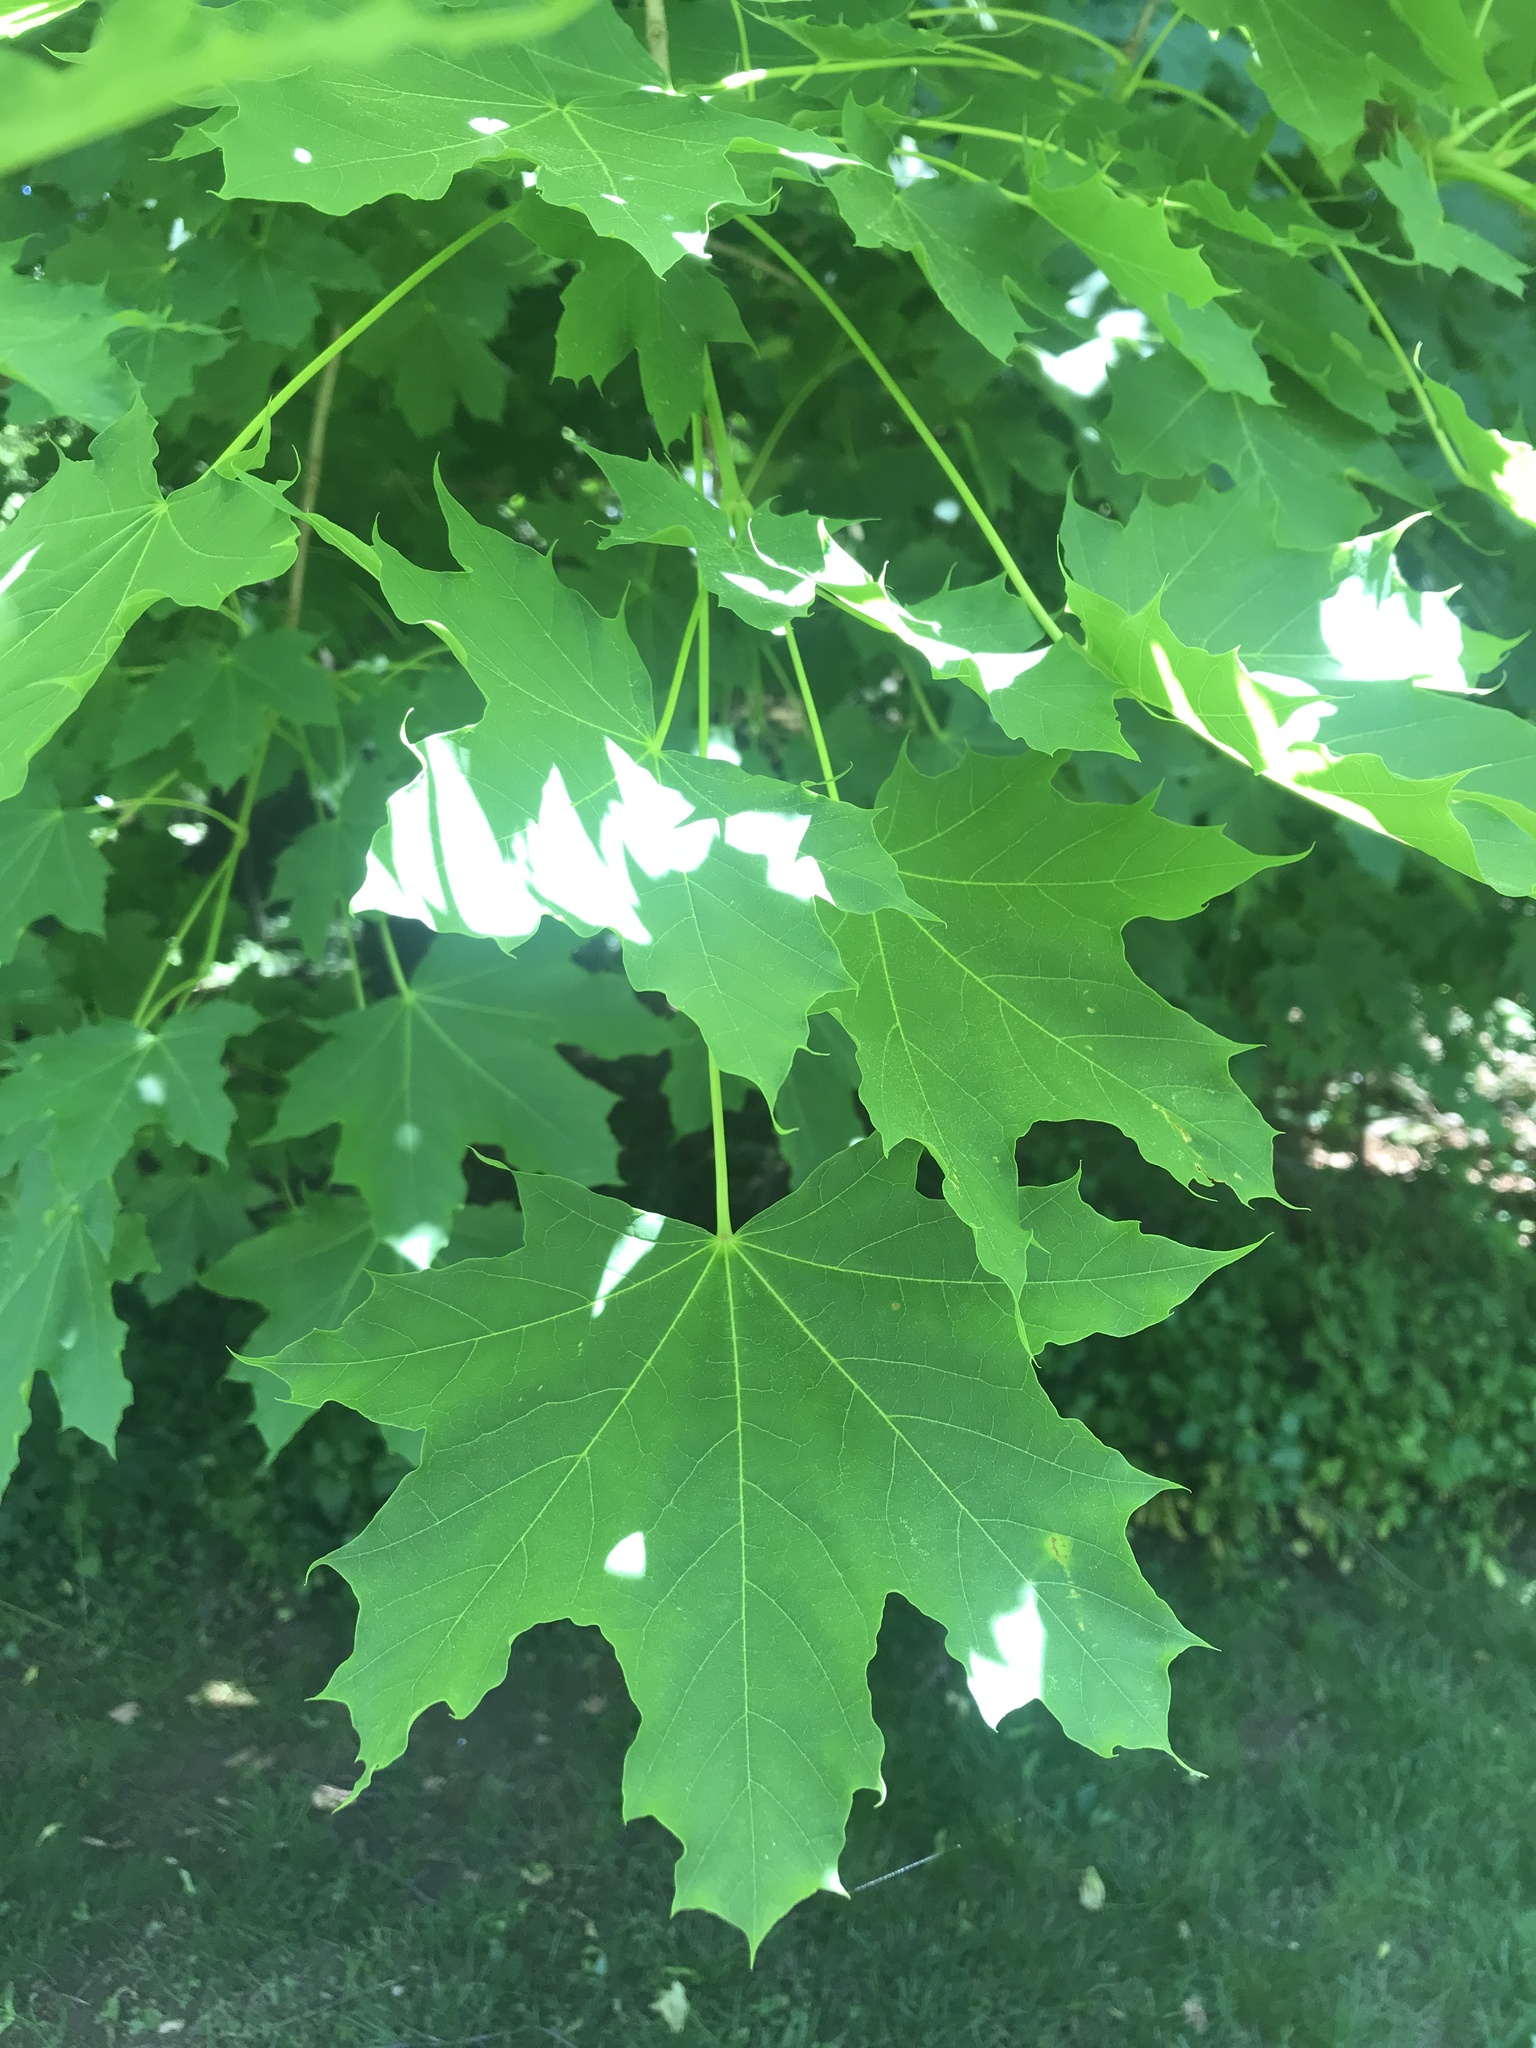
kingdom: Plantae
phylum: Tracheophyta
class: Magnoliopsida
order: Sapindales
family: Sapindaceae
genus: Acer
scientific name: Acer platanoides
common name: Norway maple
